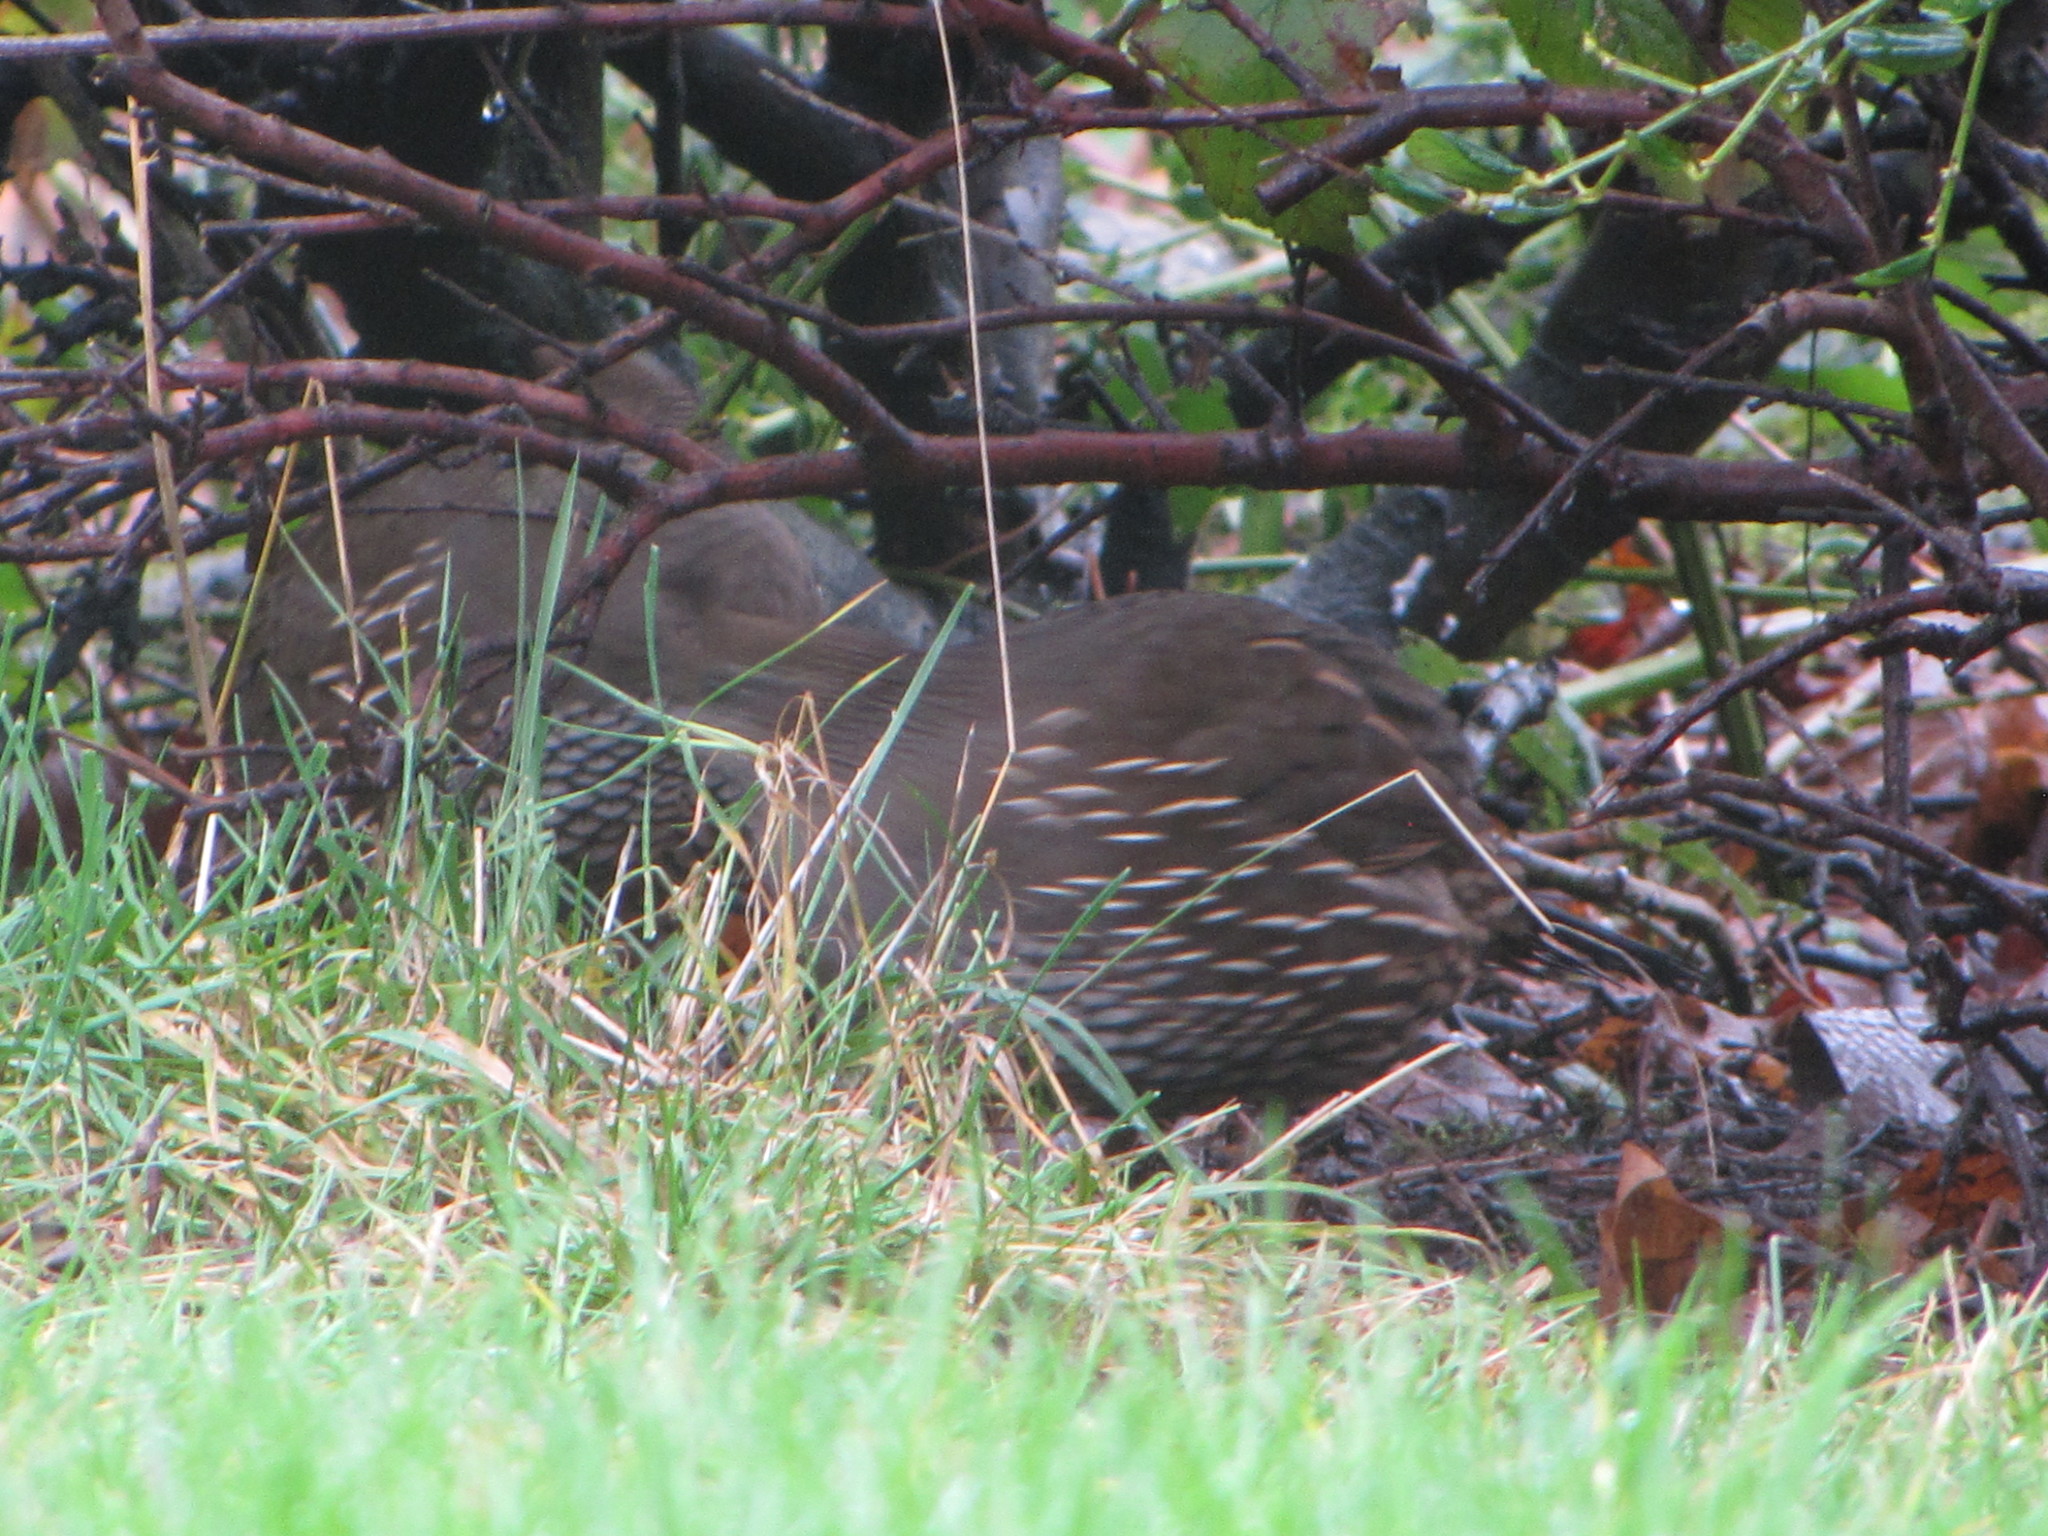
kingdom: Animalia
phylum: Chordata
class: Aves
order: Galliformes
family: Odontophoridae
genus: Callipepla
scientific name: Callipepla californica
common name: California quail
